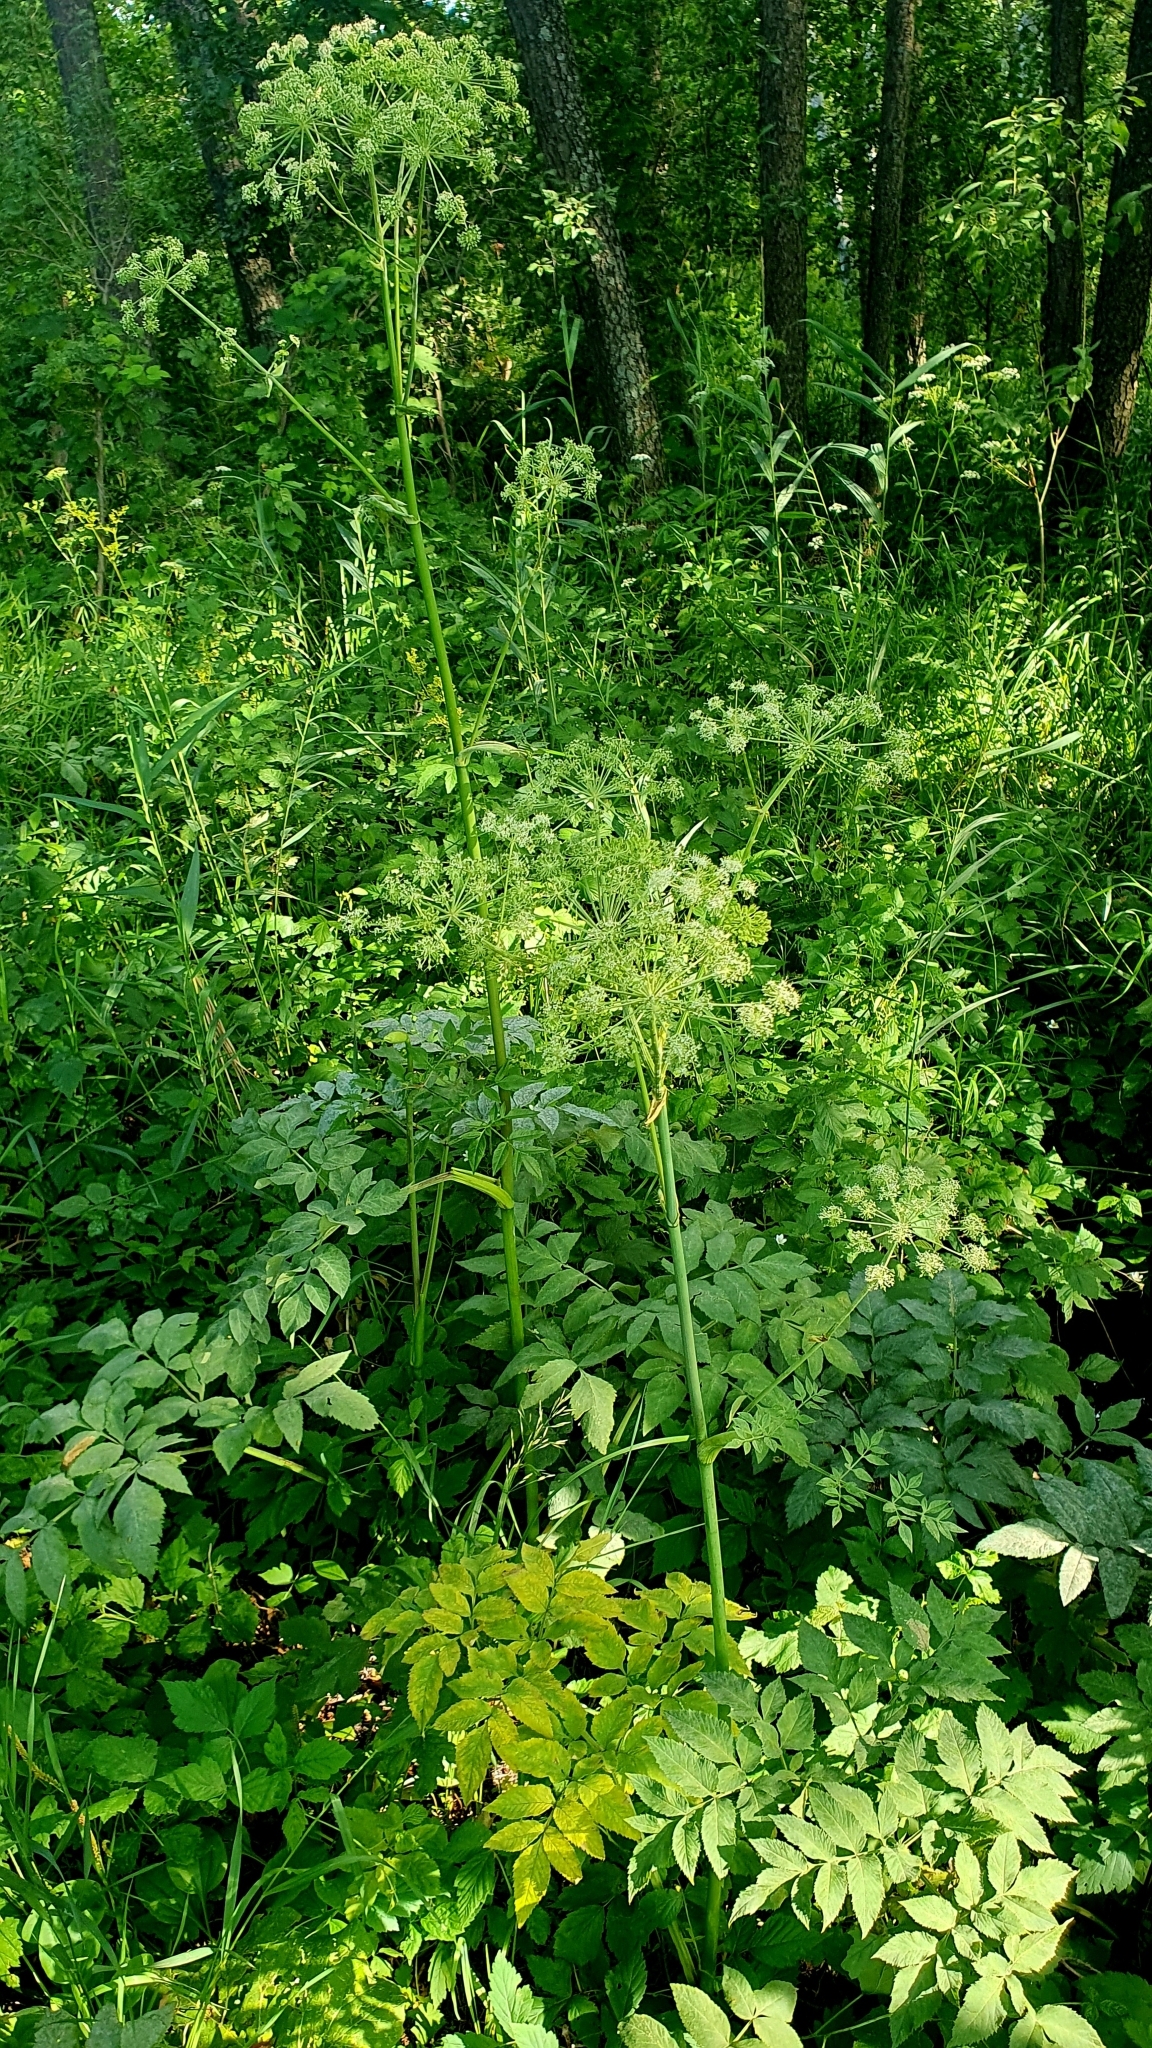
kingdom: Plantae
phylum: Tracheophyta
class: Magnoliopsida
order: Apiales
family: Apiaceae
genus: Angelica
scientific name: Angelica sylvestris
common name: Wild angelica
